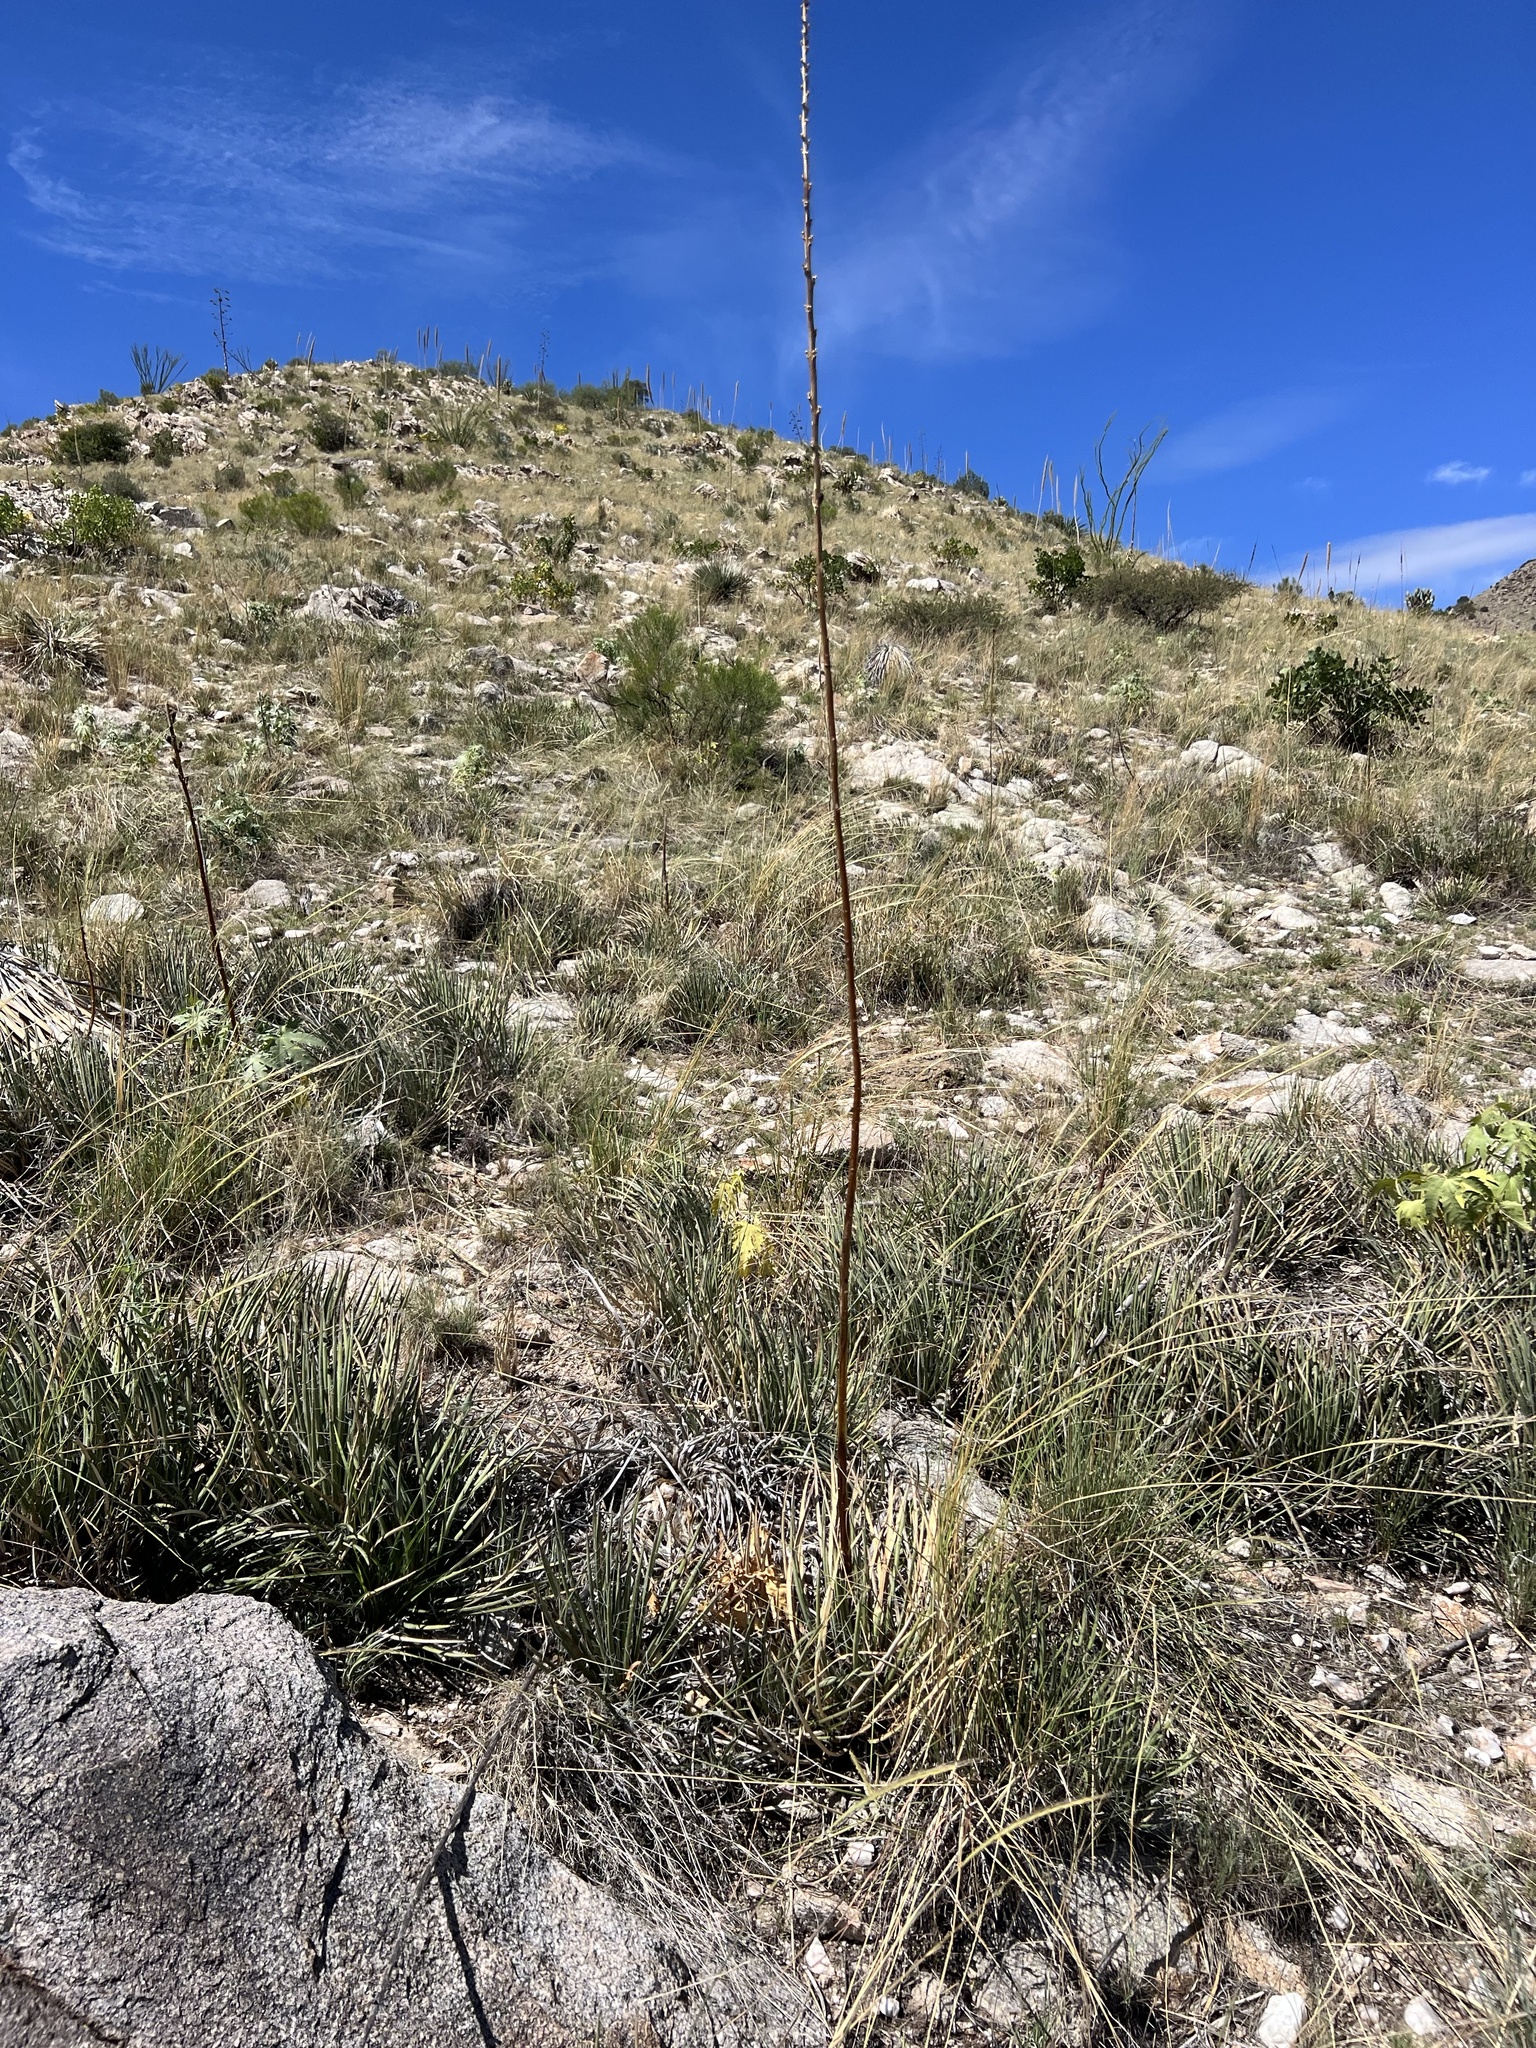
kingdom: Plantae
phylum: Tracheophyta
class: Liliopsida
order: Asparagales
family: Asparagaceae
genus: Agave
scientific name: Agave schottii
